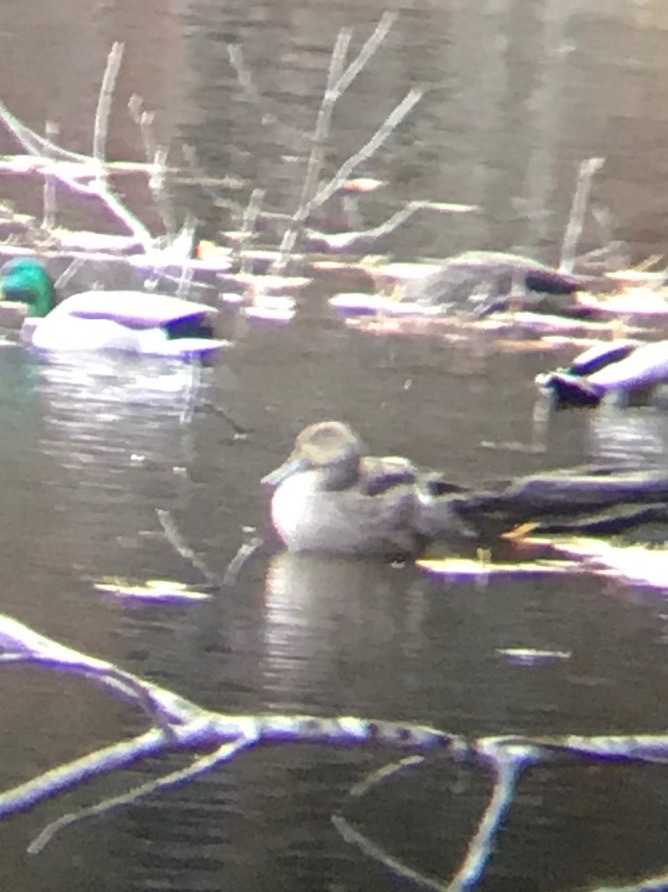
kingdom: Animalia
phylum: Chordata
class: Aves
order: Anseriformes
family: Anatidae
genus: Anas
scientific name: Anas acuta
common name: Northern pintail
